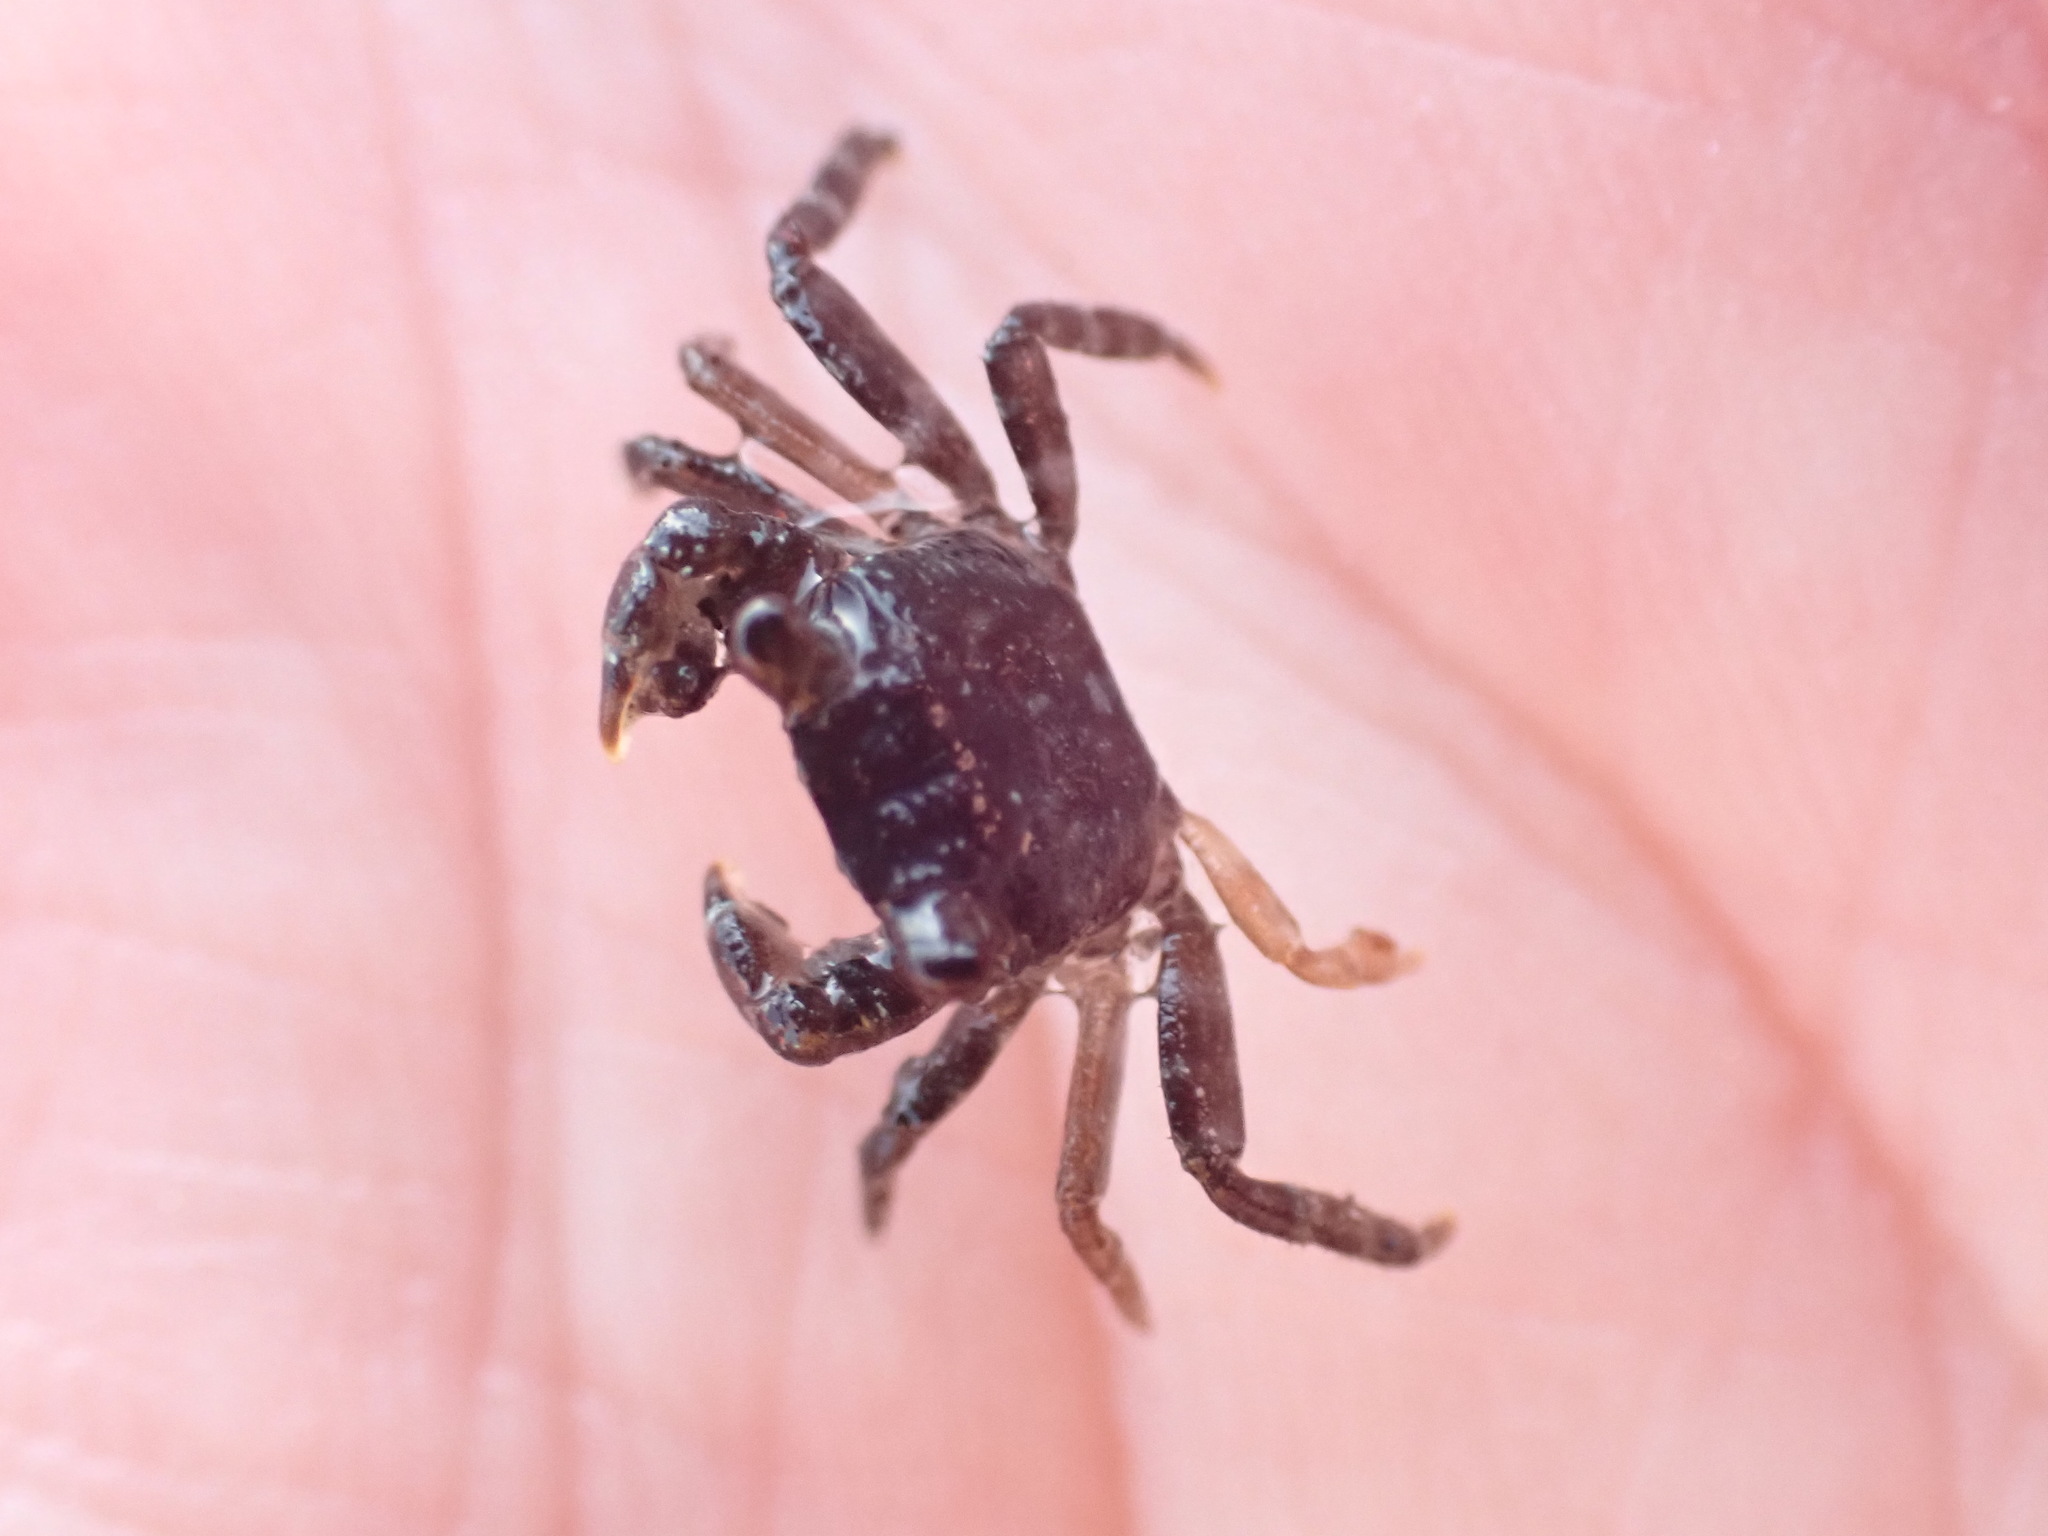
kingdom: Animalia
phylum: Arthropoda
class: Malacostraca
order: Decapoda
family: Grapsidae
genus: Leptograpsus
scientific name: Leptograpsus variegatus
